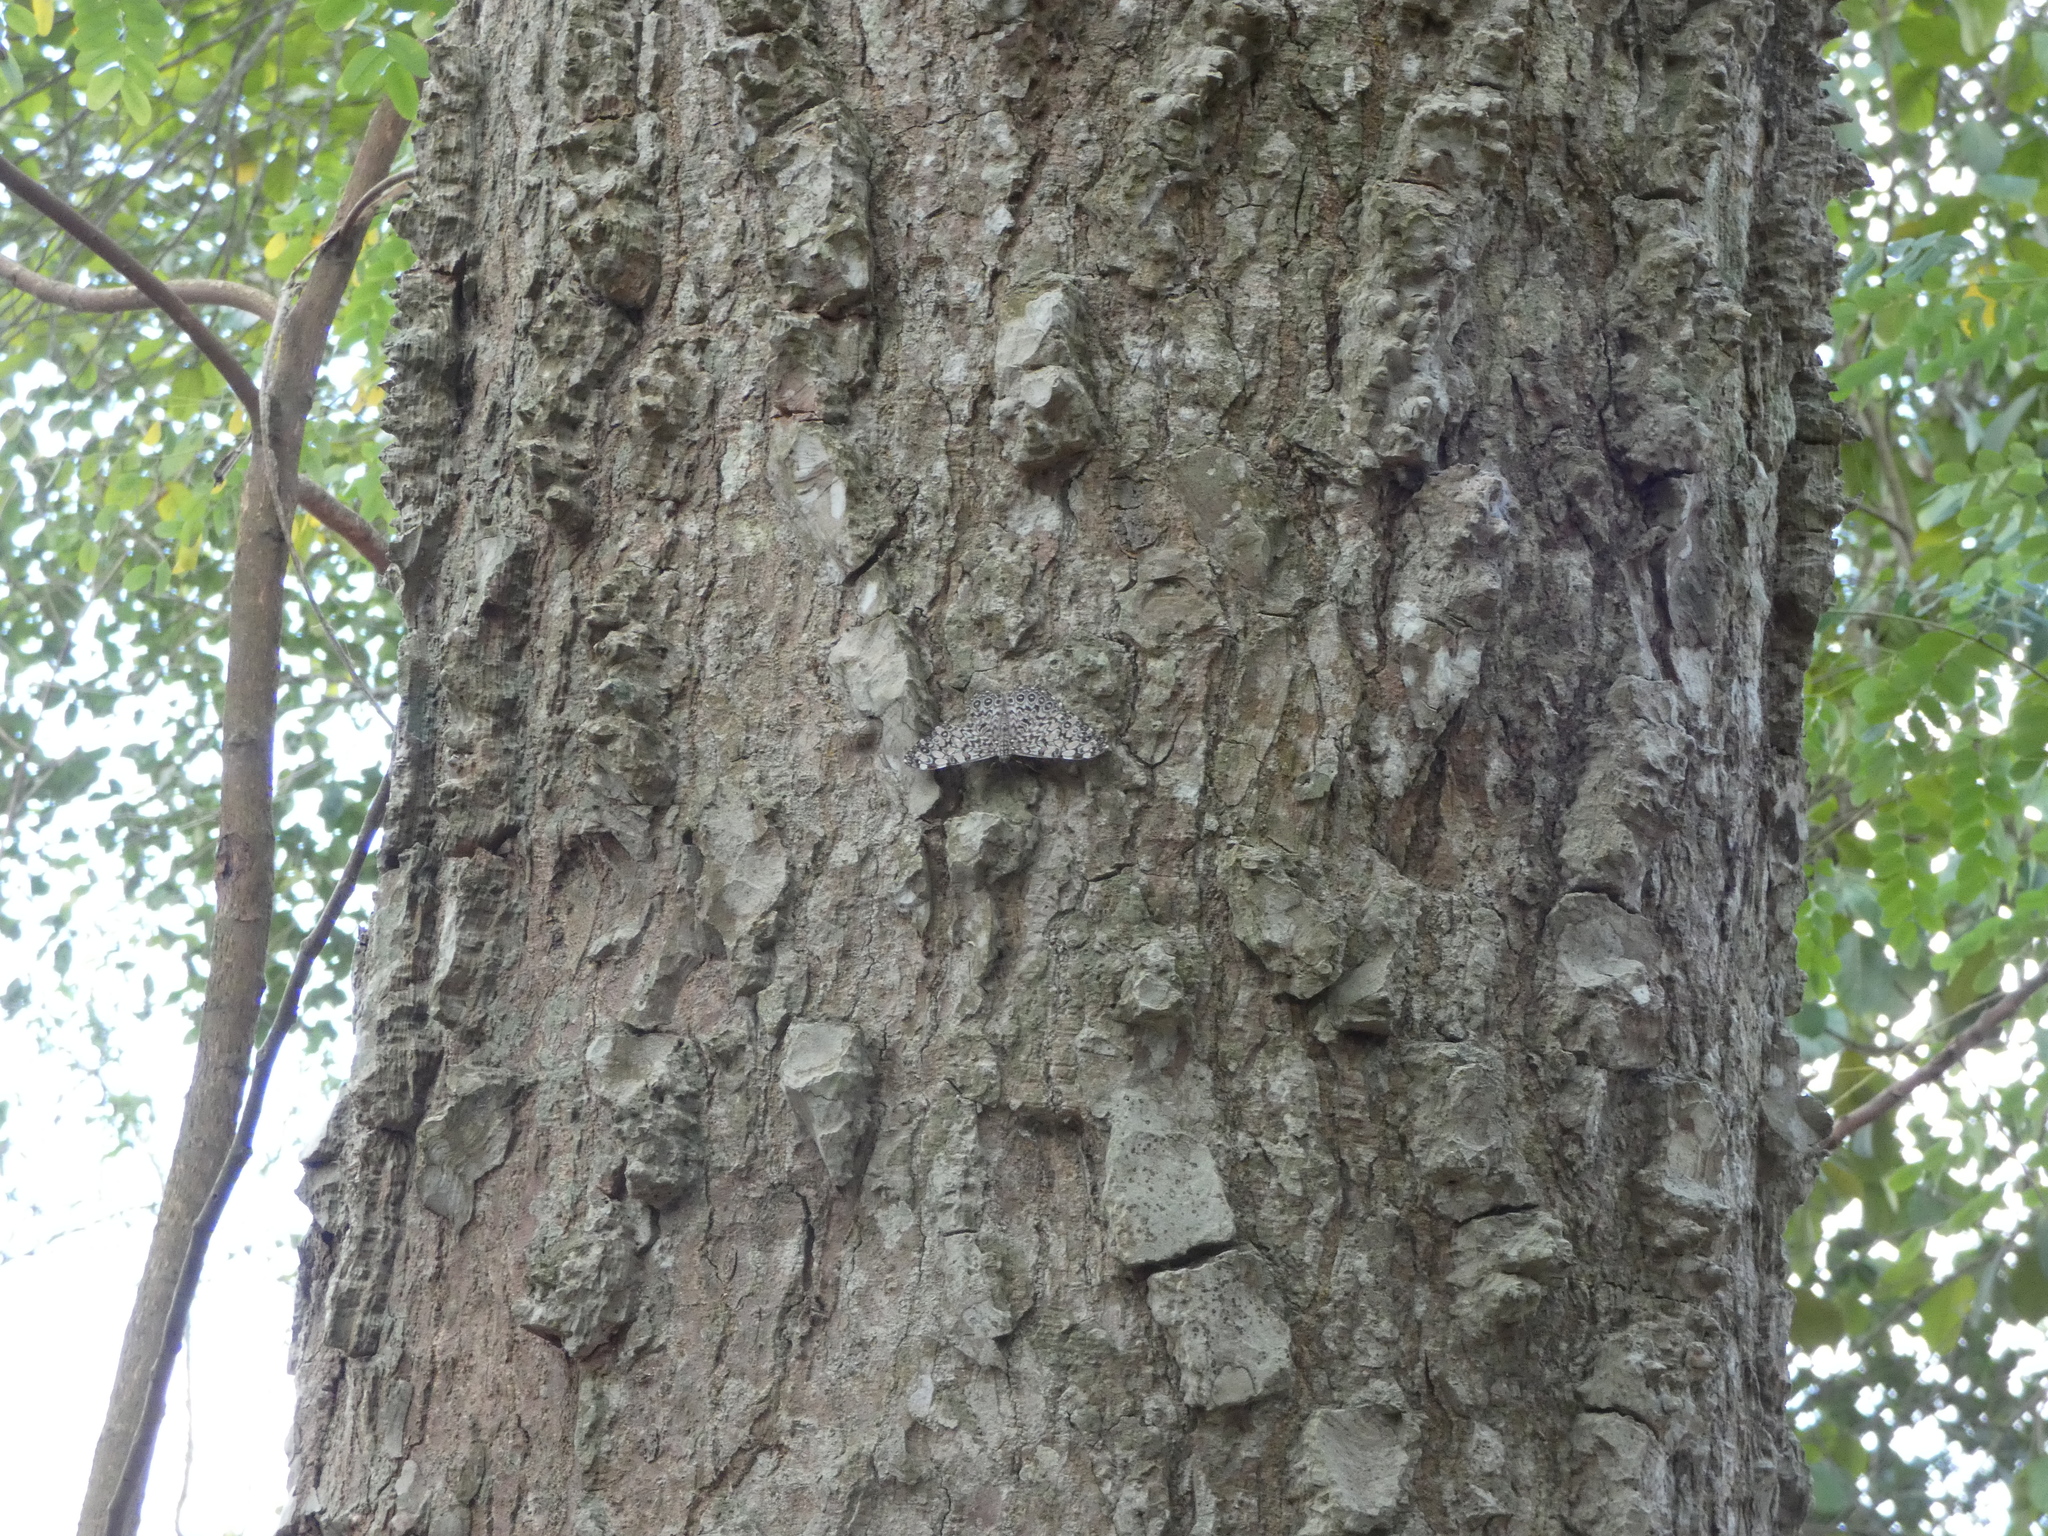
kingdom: Animalia
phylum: Arthropoda
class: Insecta
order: Lepidoptera
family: Nymphalidae
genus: Hamadryas
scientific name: Hamadryas feronia
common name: Variable cracker
